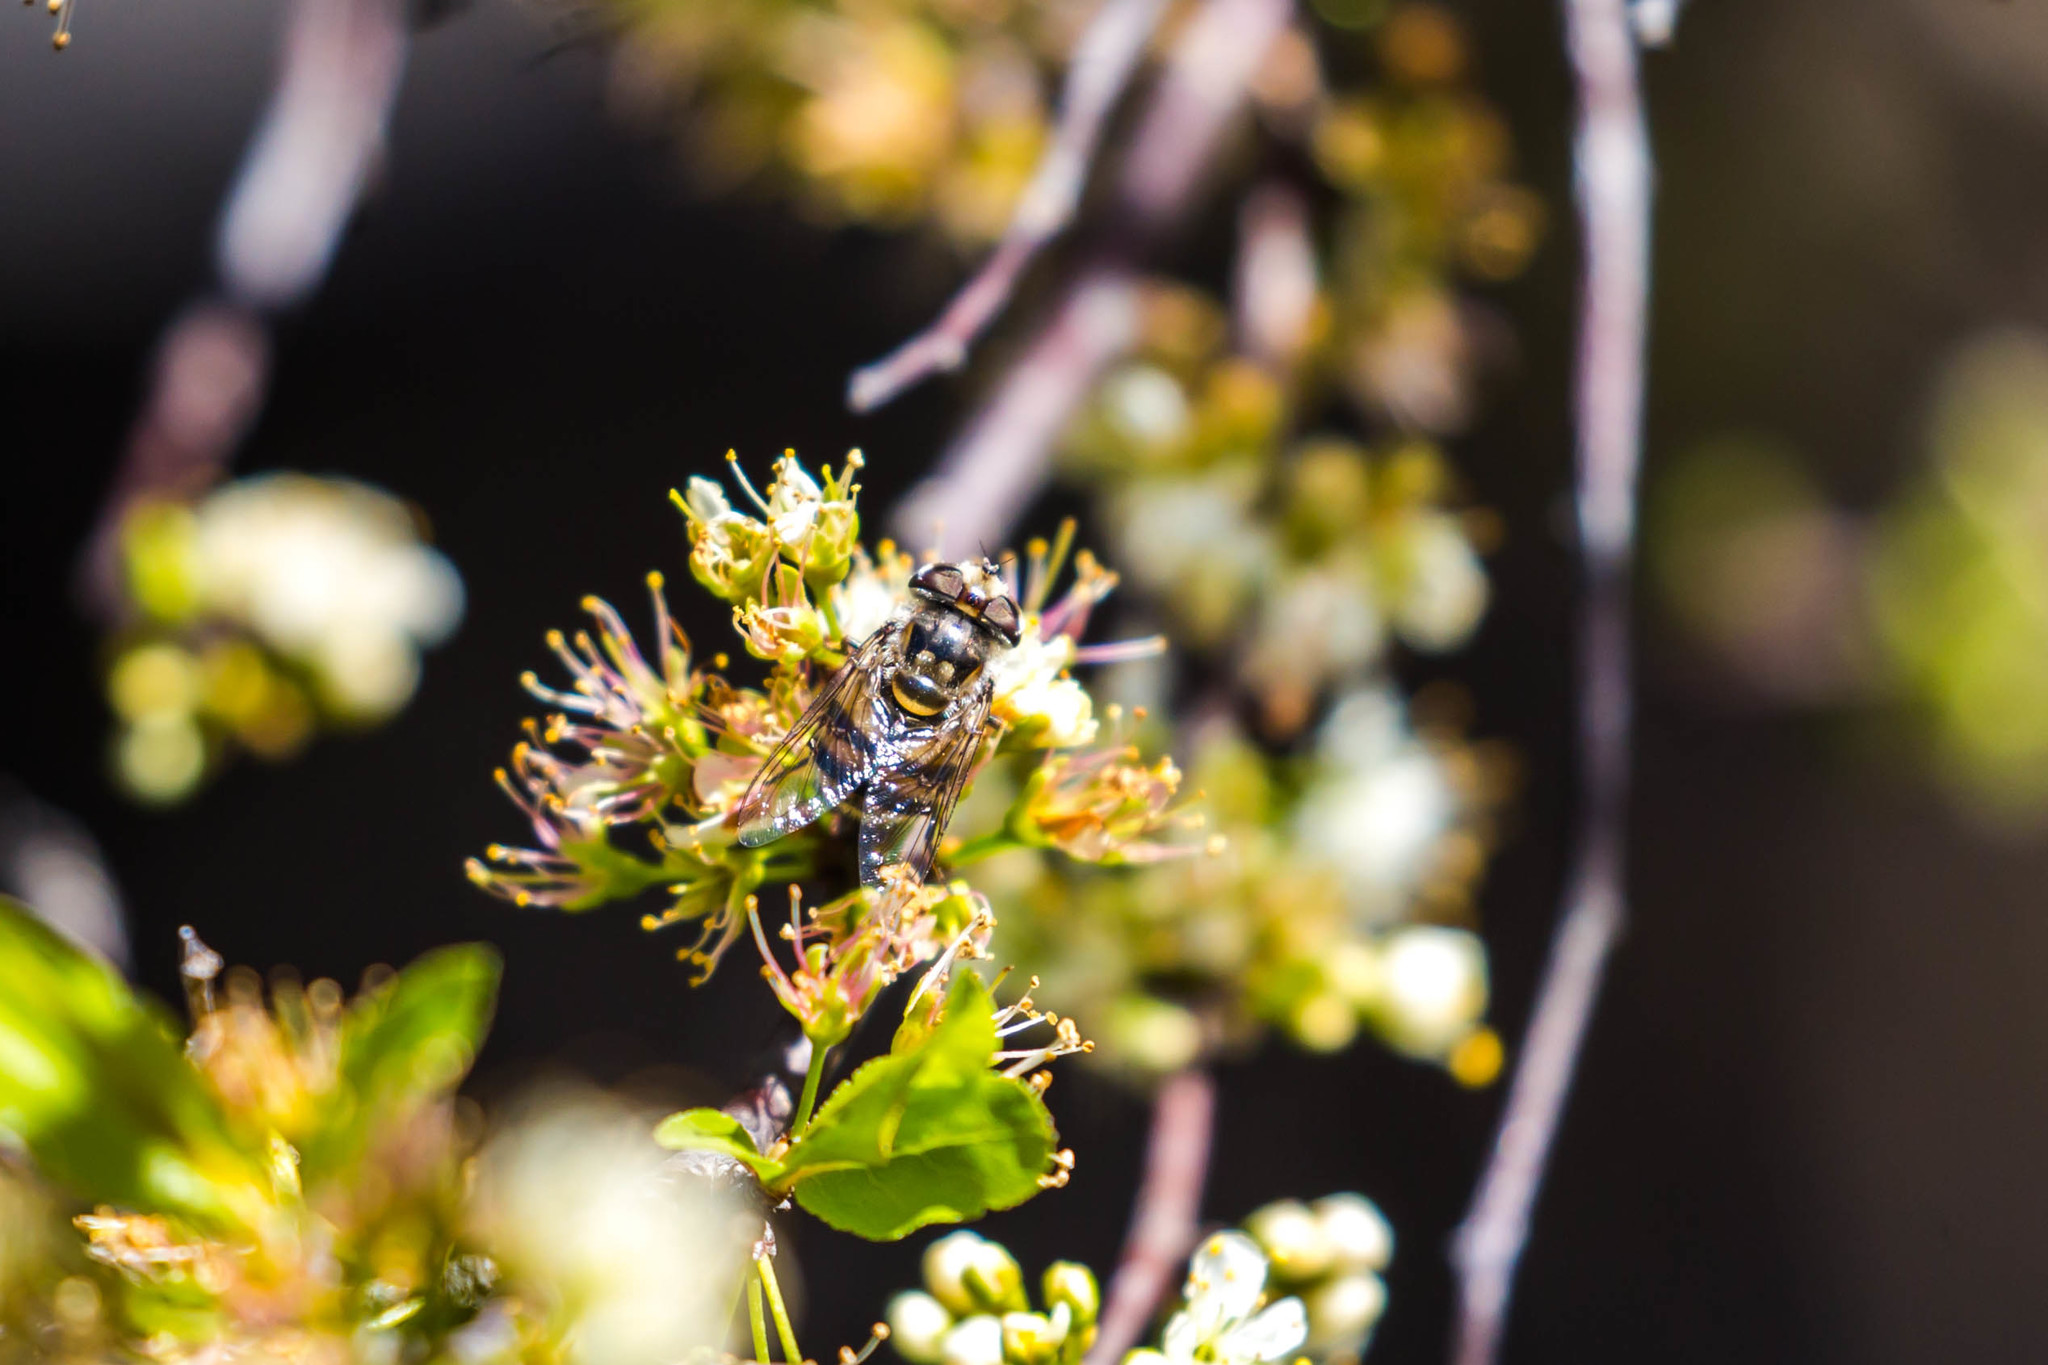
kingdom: Animalia
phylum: Arthropoda
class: Insecta
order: Diptera
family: Syrphidae
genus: Copestylum
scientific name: Copestylum avidum
